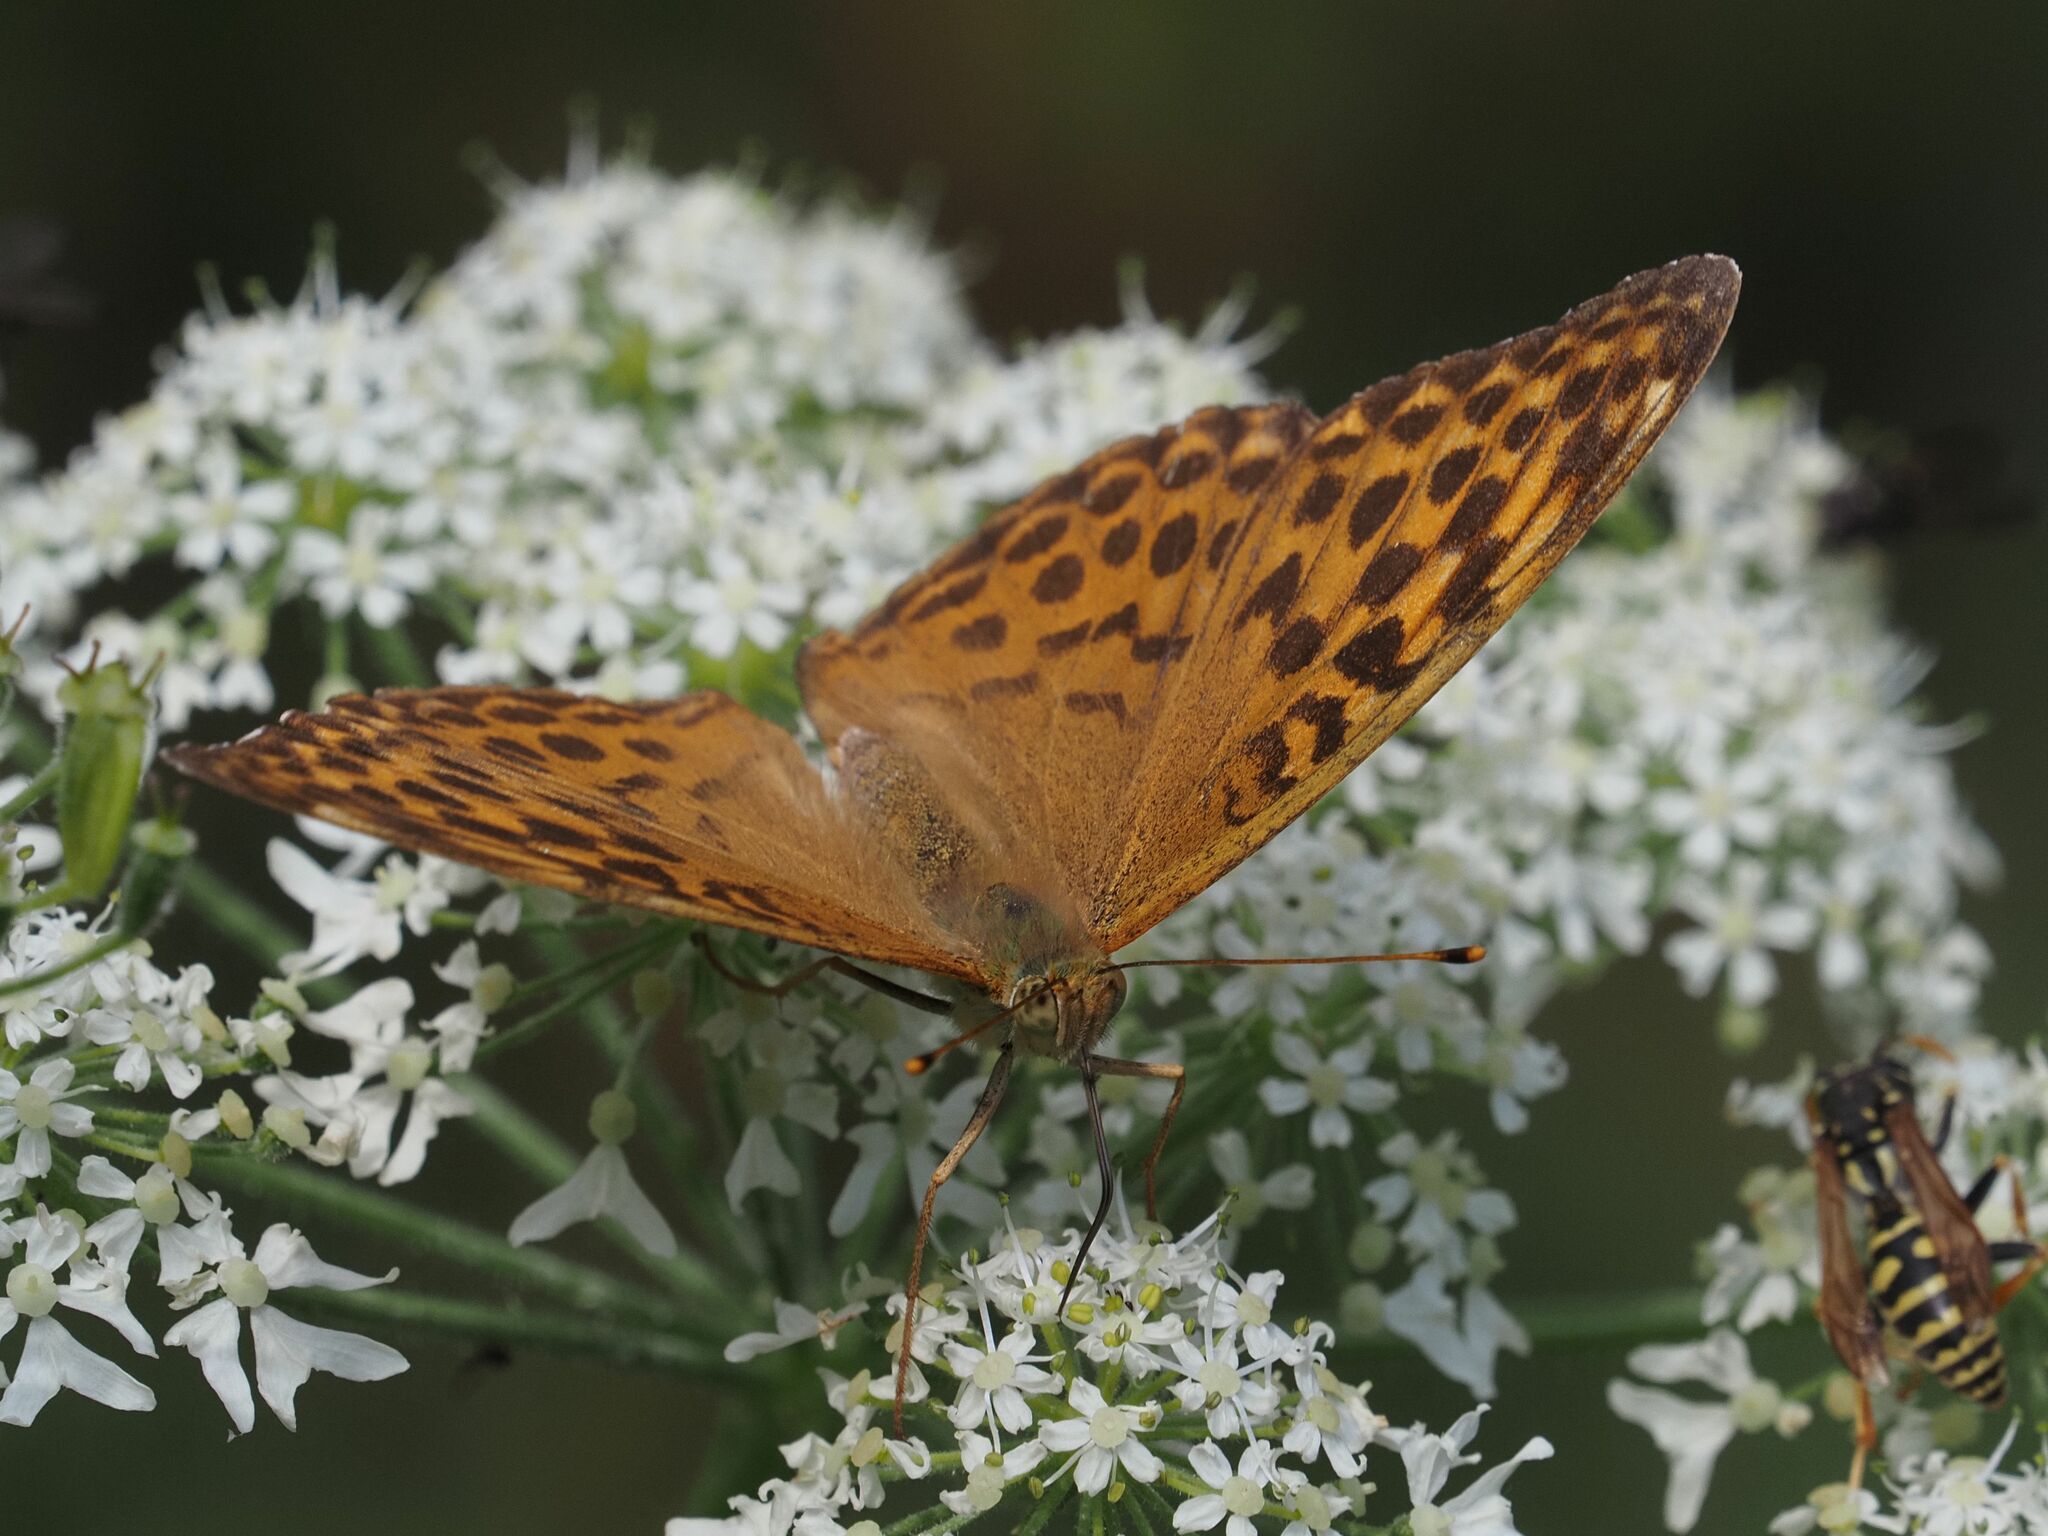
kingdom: Animalia
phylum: Arthropoda
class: Insecta
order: Lepidoptera
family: Nymphalidae
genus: Argynnis
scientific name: Argynnis paphia
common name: Silver-washed fritillary
